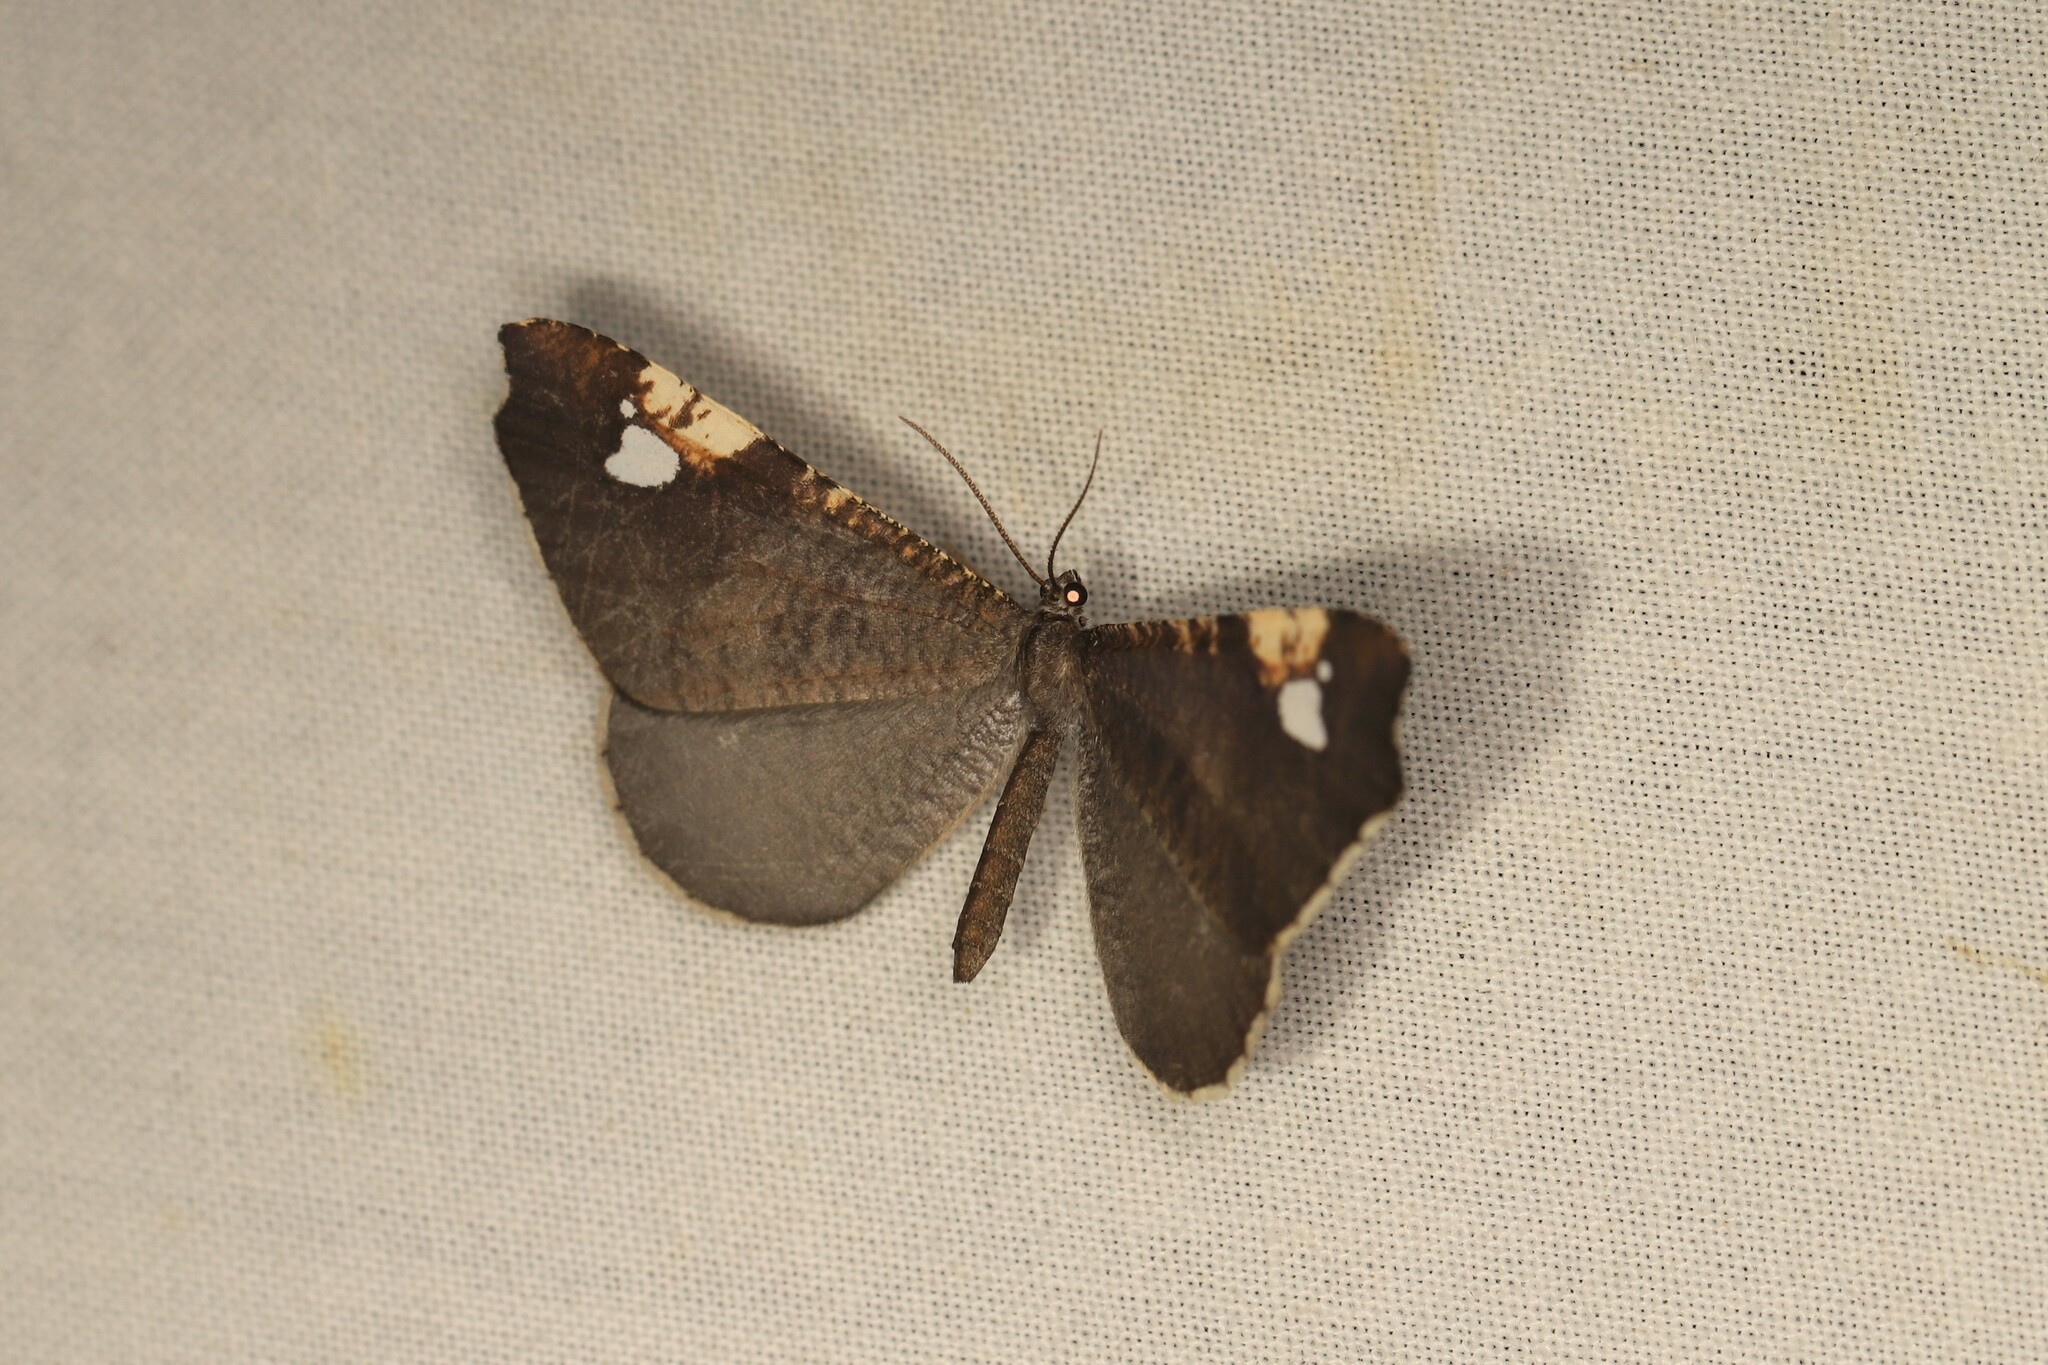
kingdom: Animalia
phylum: Arthropoda
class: Insecta
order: Lepidoptera
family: Hedylidae
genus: Macrosoma
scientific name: Macrosoma subornata
